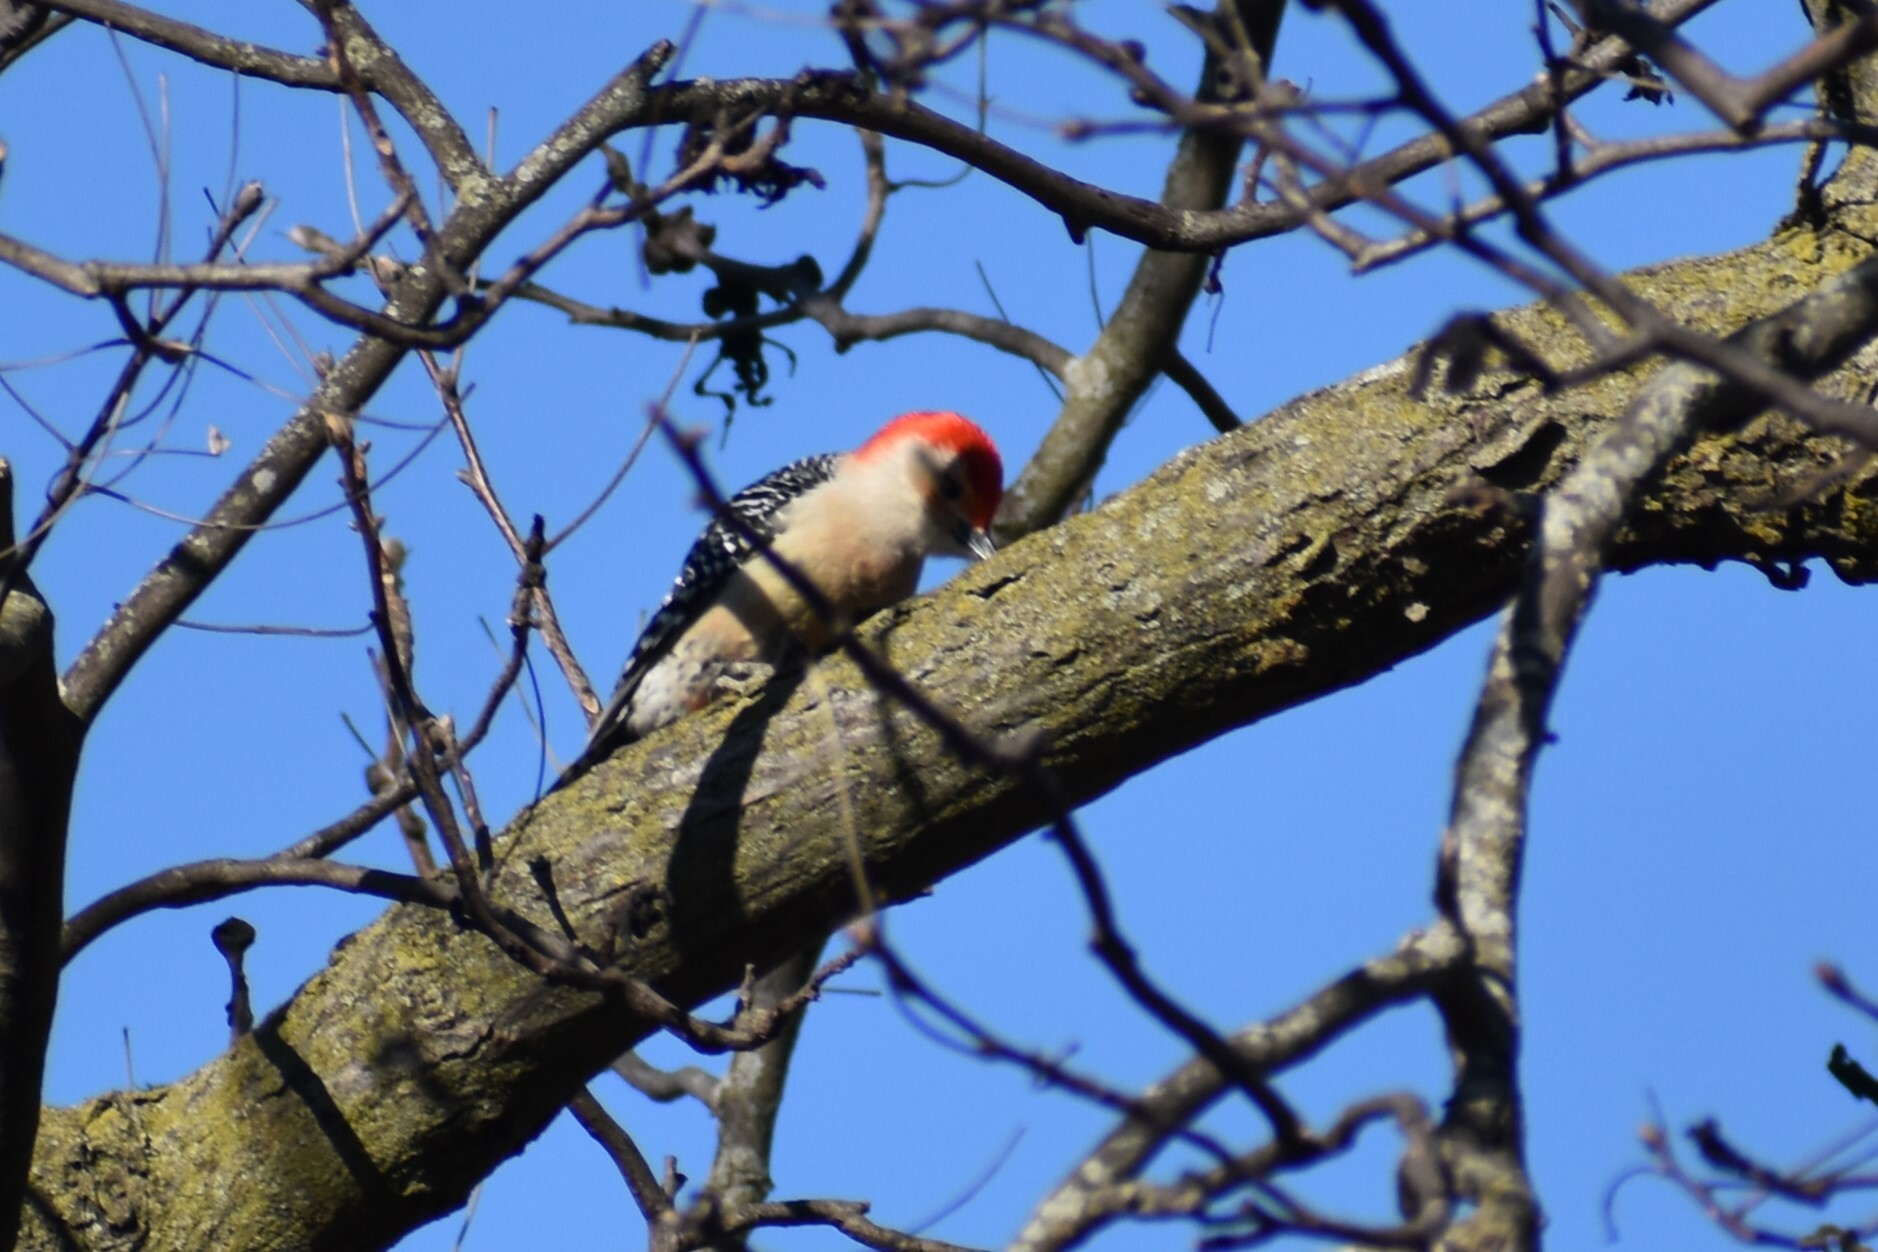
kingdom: Animalia
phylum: Chordata
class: Aves
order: Piciformes
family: Picidae
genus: Melanerpes
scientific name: Melanerpes carolinus
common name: Red-bellied woodpecker
